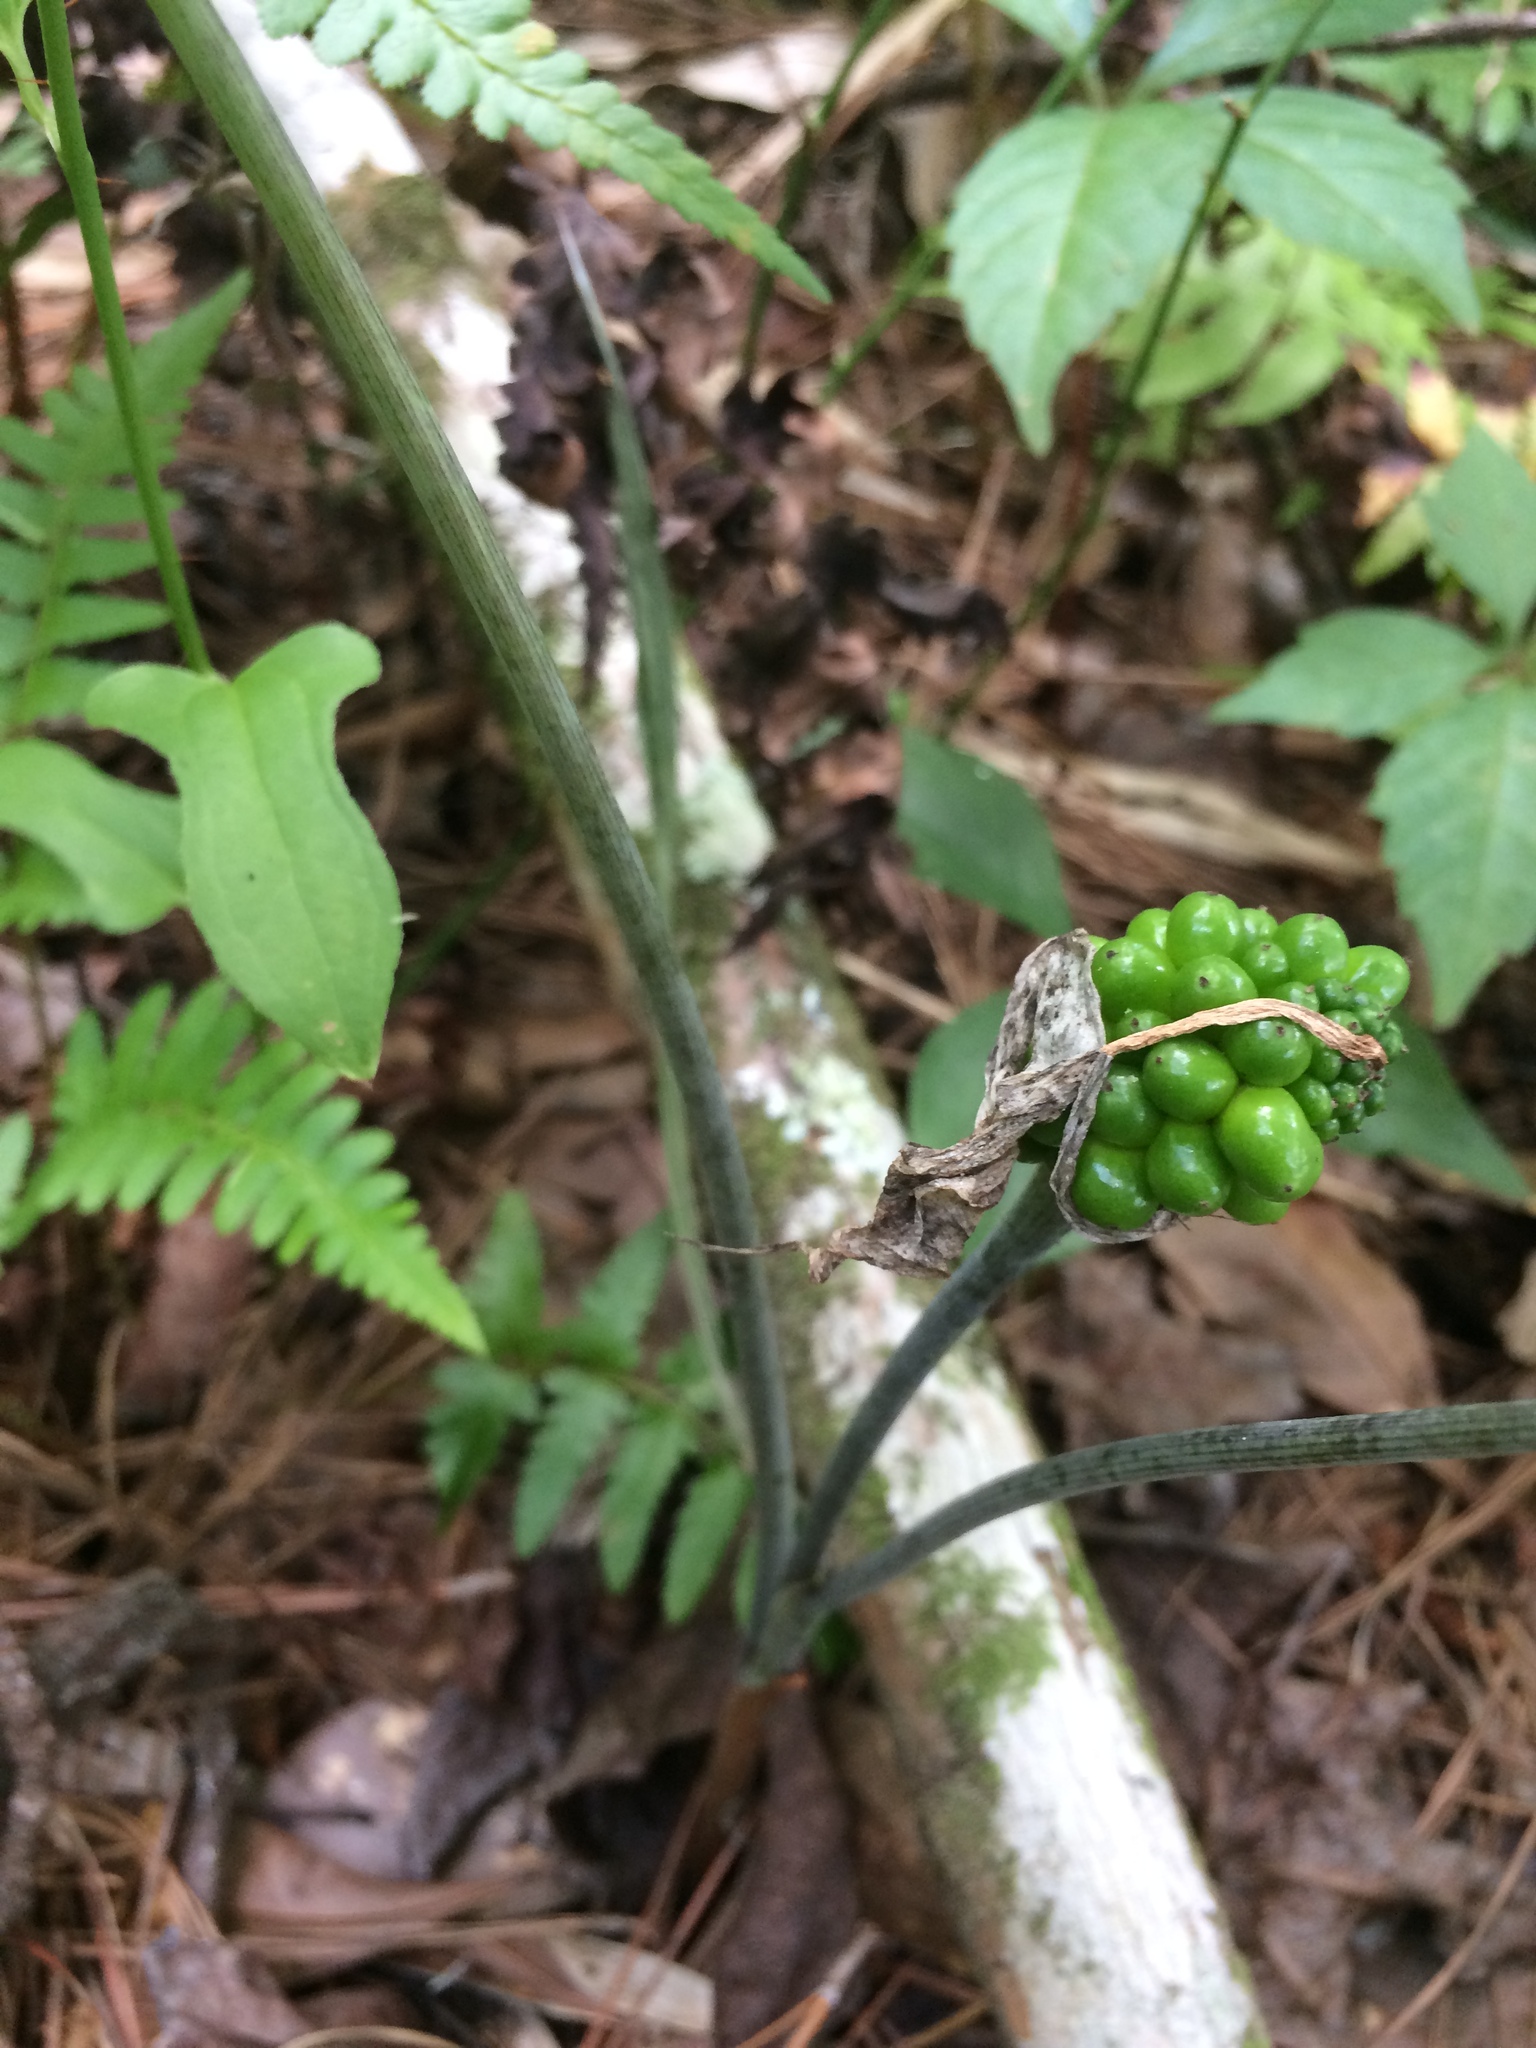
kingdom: Plantae
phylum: Tracheophyta
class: Liliopsida
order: Alismatales
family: Araceae
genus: Arisaema
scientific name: Arisaema acuminatum
